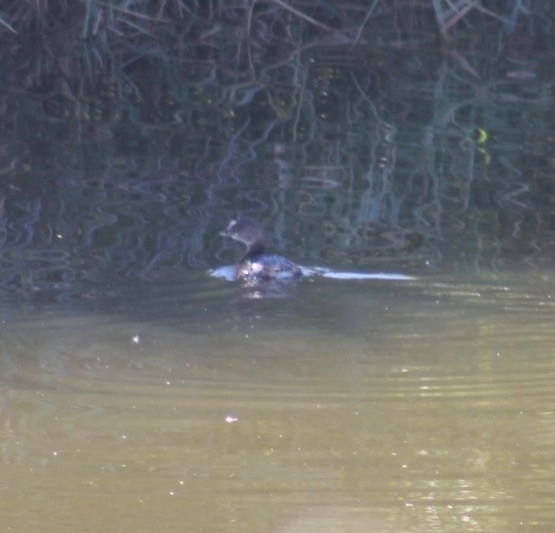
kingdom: Animalia
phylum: Chordata
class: Aves
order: Podicipediformes
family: Podicipedidae
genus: Podilymbus
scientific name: Podilymbus podiceps
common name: Pied-billed grebe
